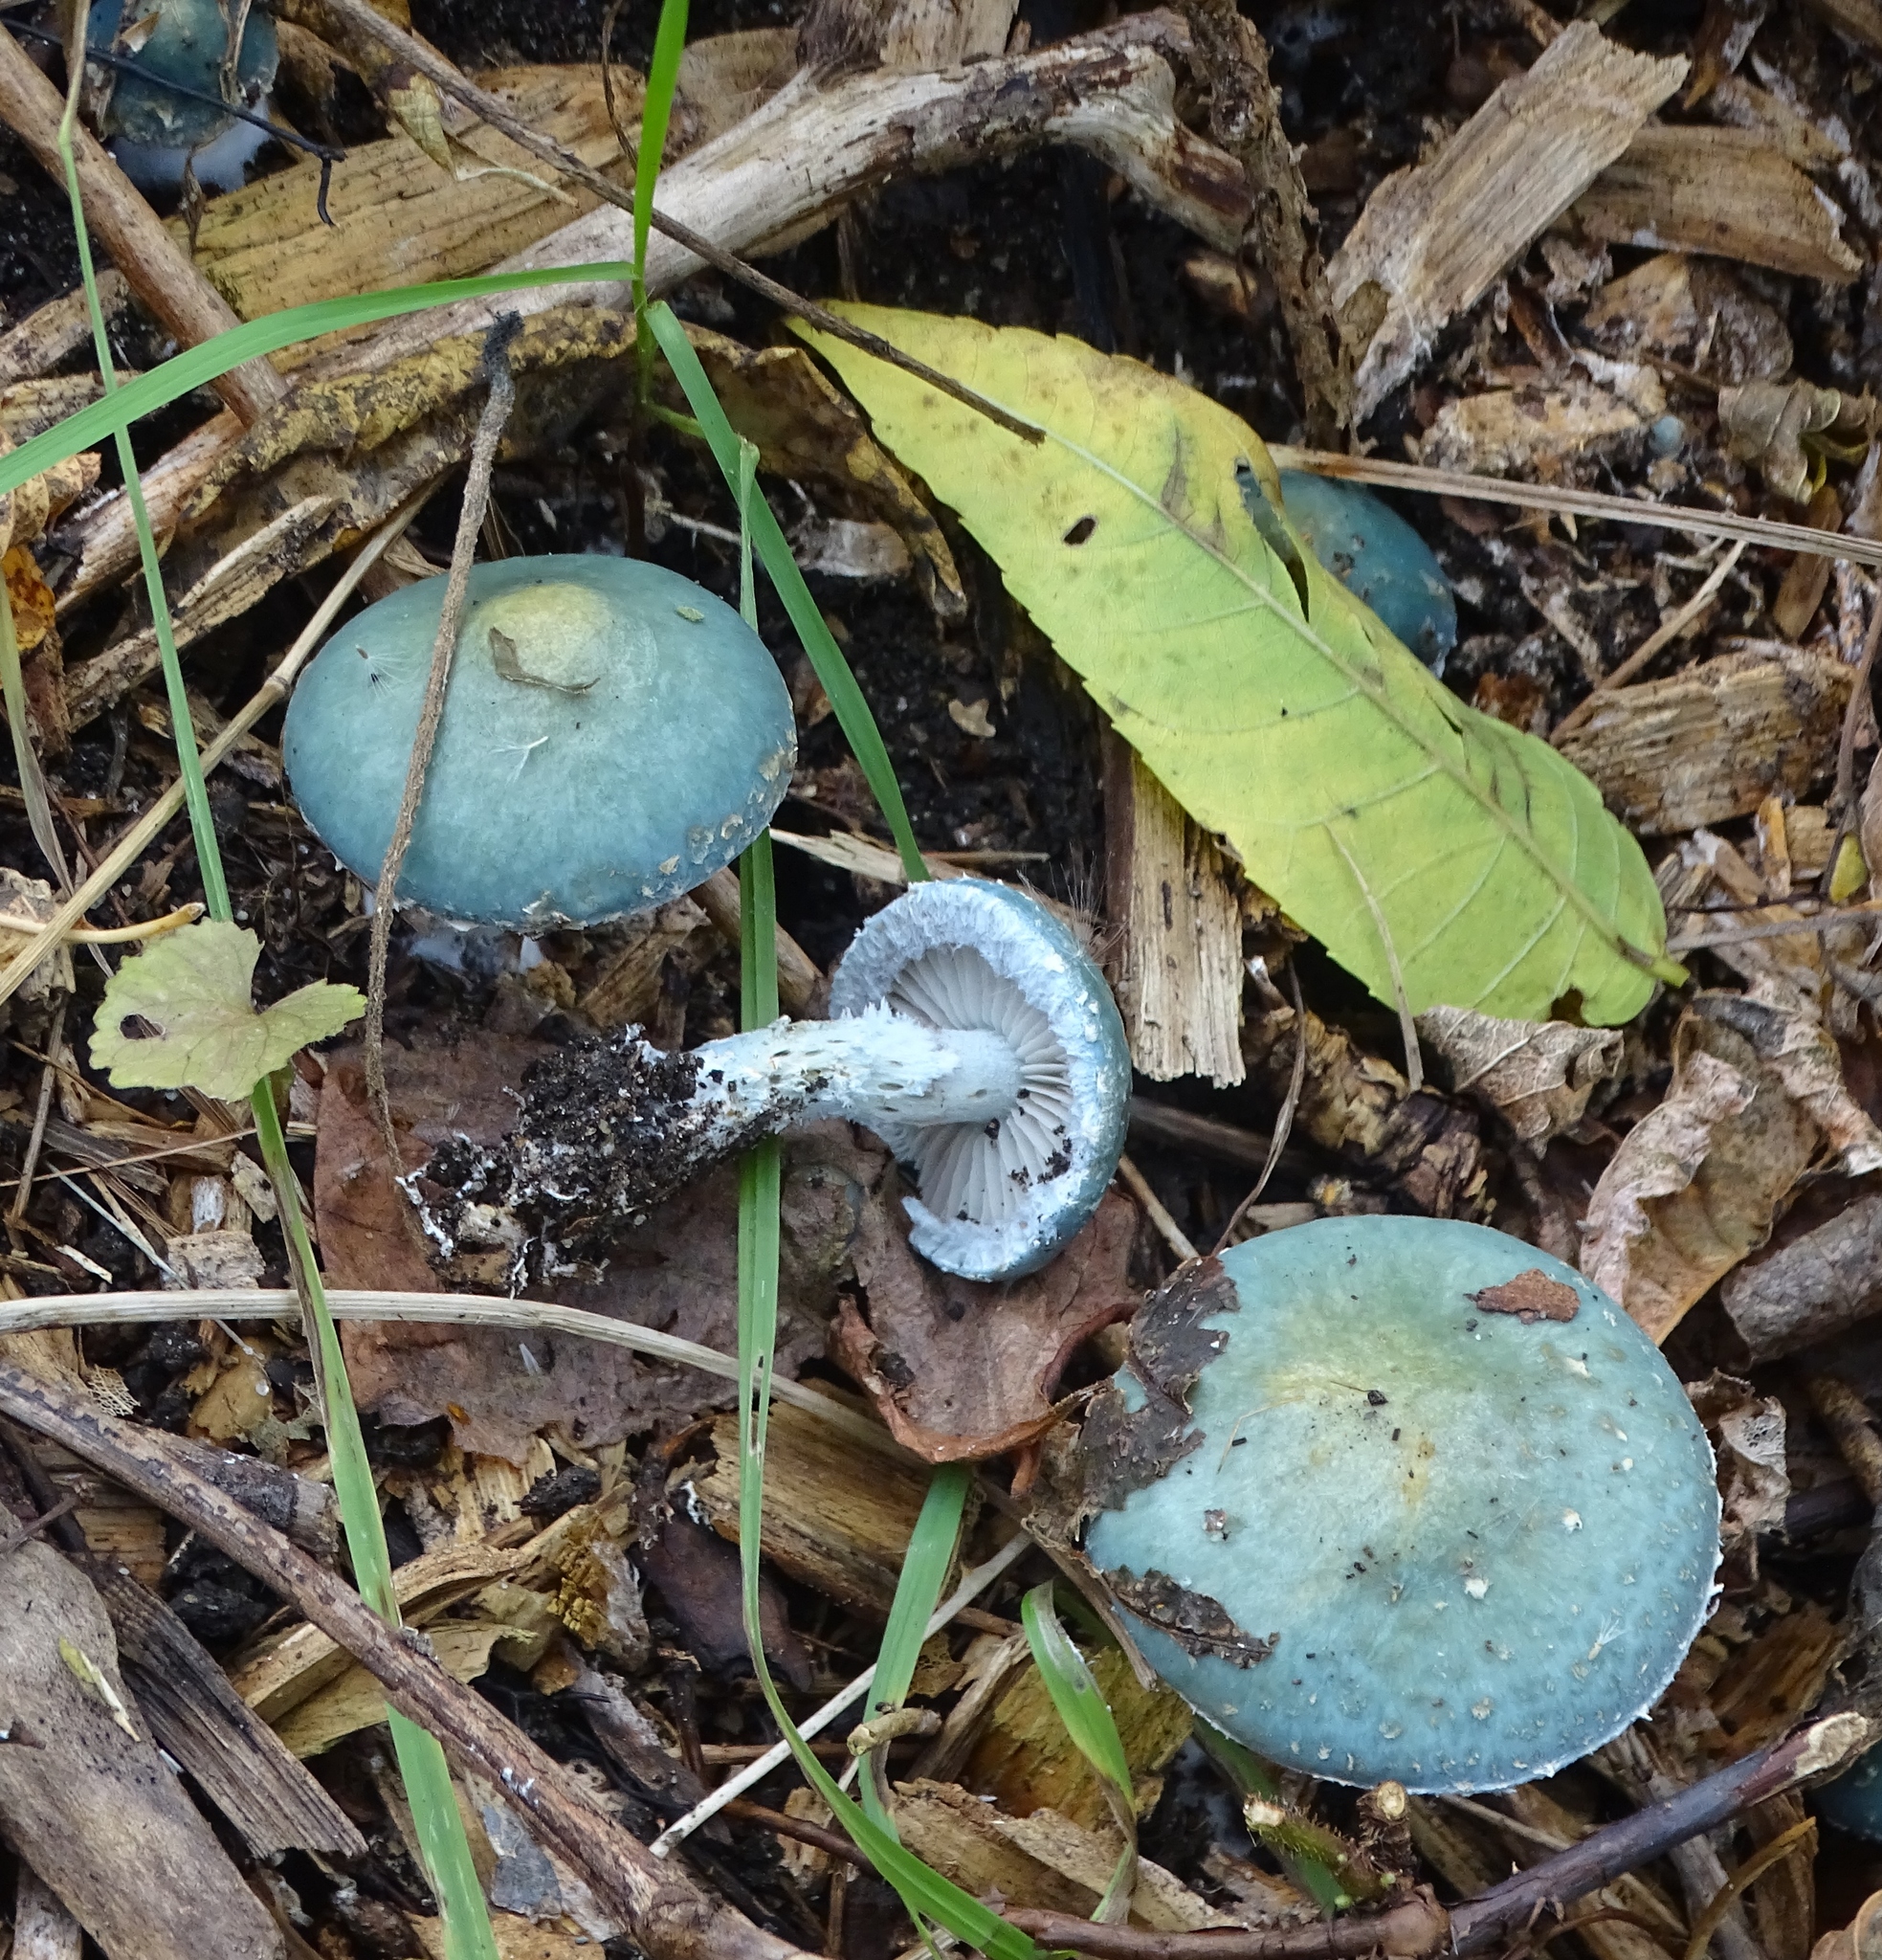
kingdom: Fungi
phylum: Basidiomycota
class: Agaricomycetes
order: Agaricales
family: Strophariaceae
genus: Stropharia
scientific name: Stropharia aeruginosa
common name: Verdigris roundhead
